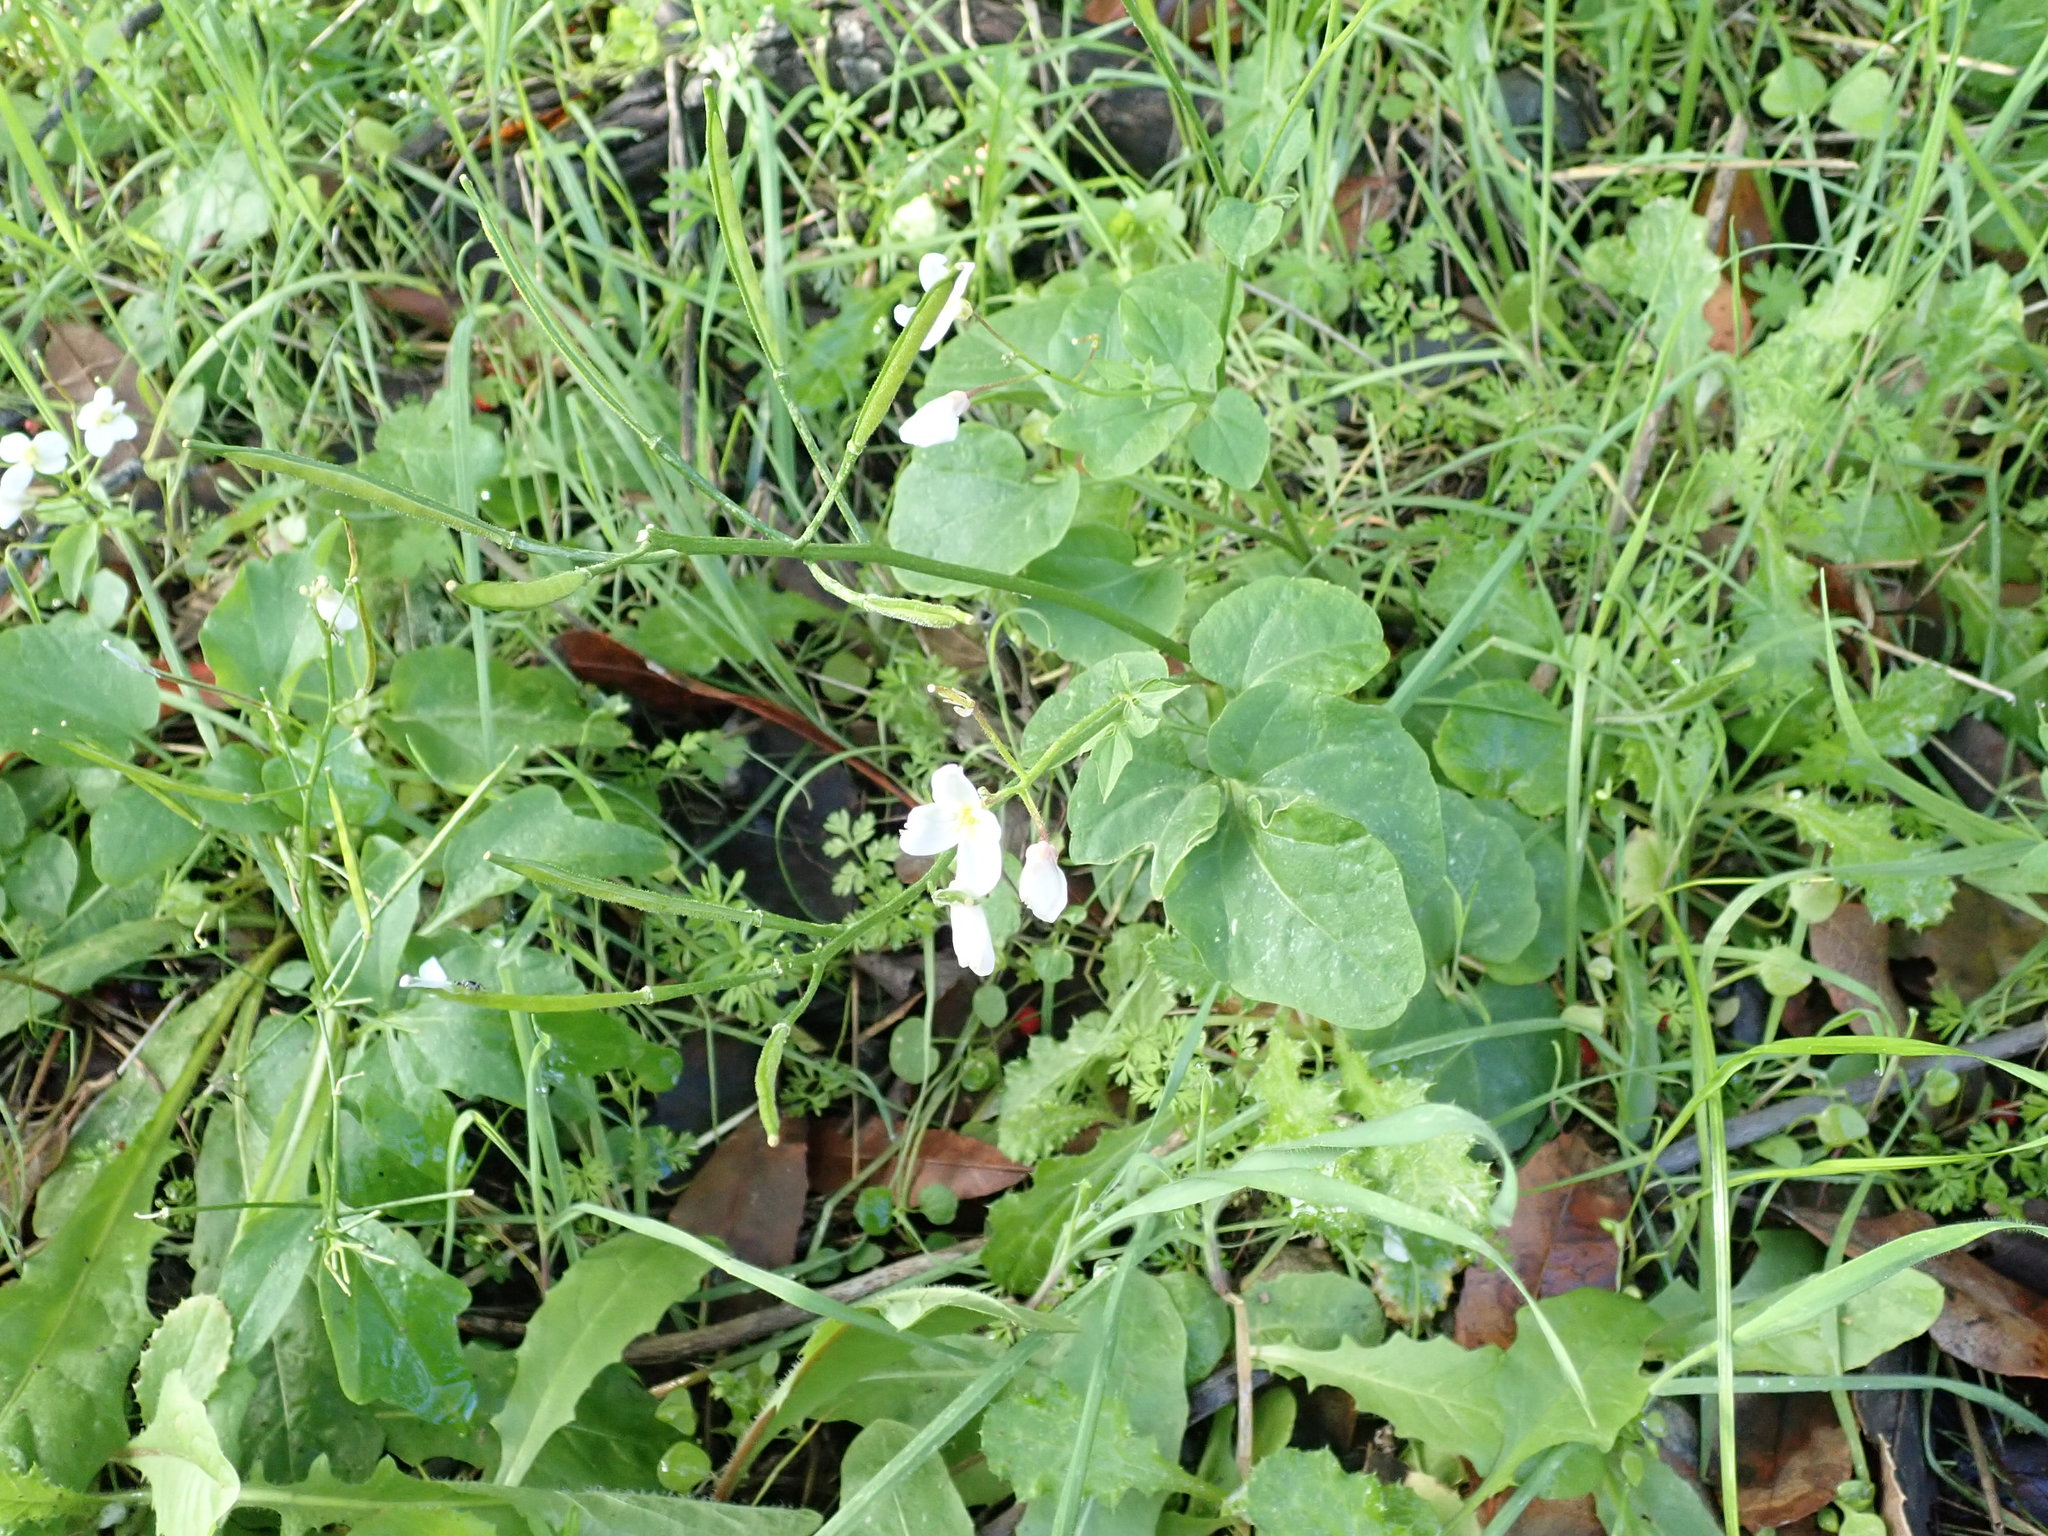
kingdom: Plantae
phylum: Tracheophyta
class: Magnoliopsida
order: Brassicales
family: Brassicaceae
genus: Cardamine
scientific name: Cardamine californica
